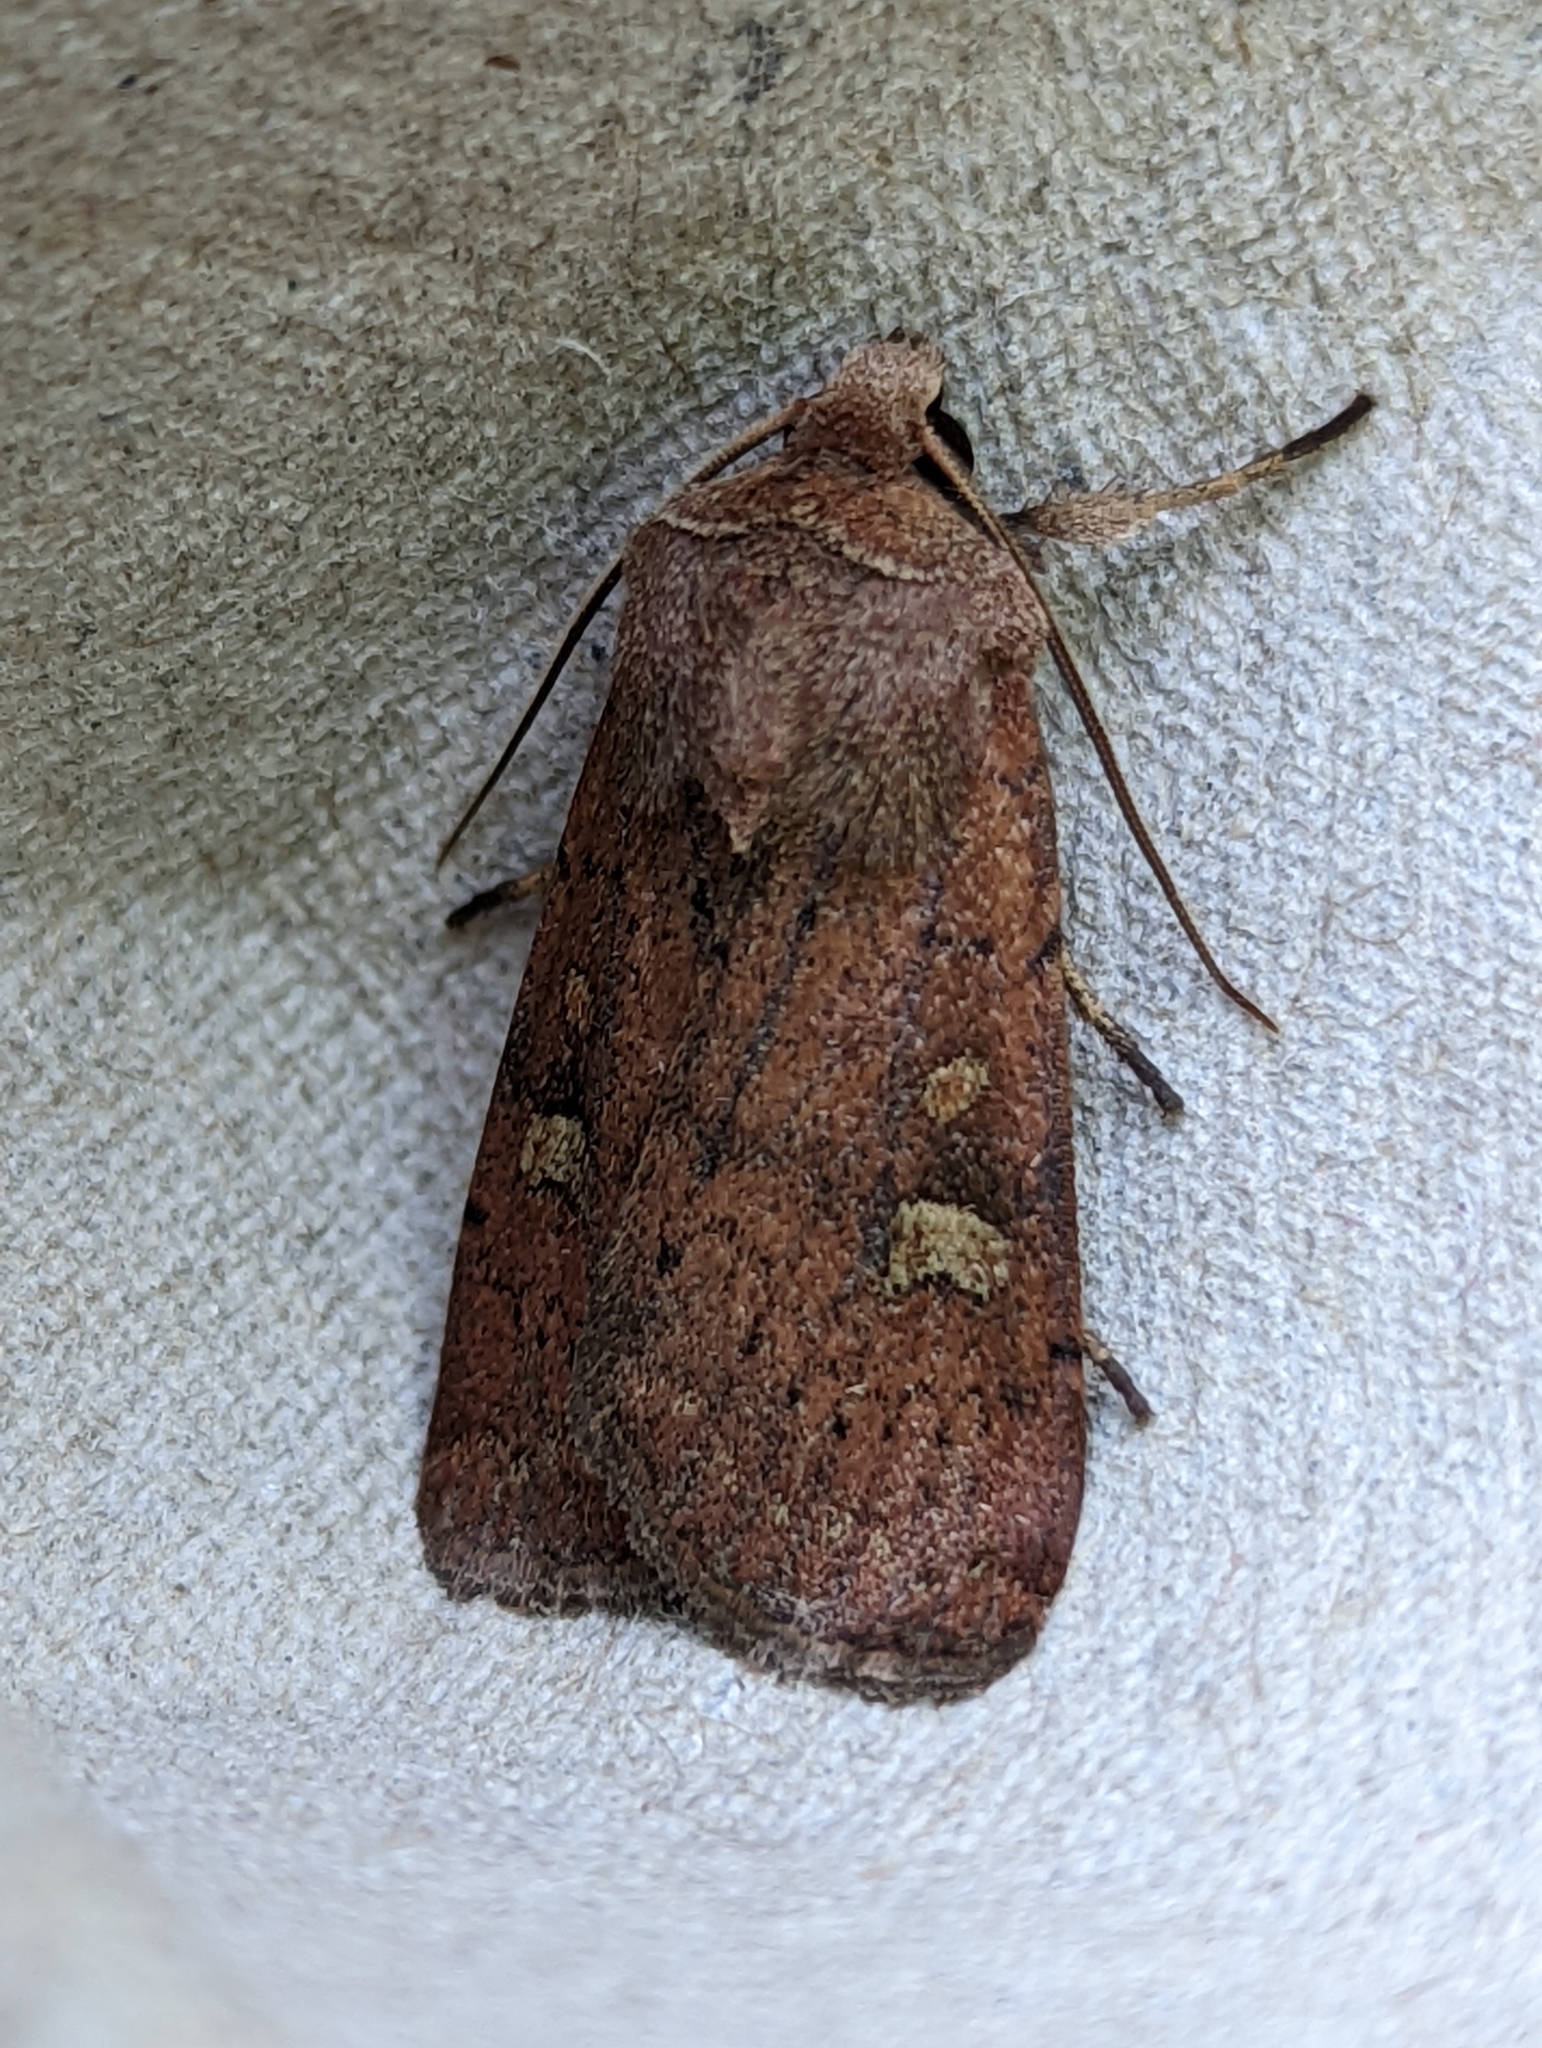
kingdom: Animalia
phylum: Arthropoda
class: Insecta
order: Lepidoptera
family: Noctuidae
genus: Xestia
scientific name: Xestia xanthographa
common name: Square-spot rustic
